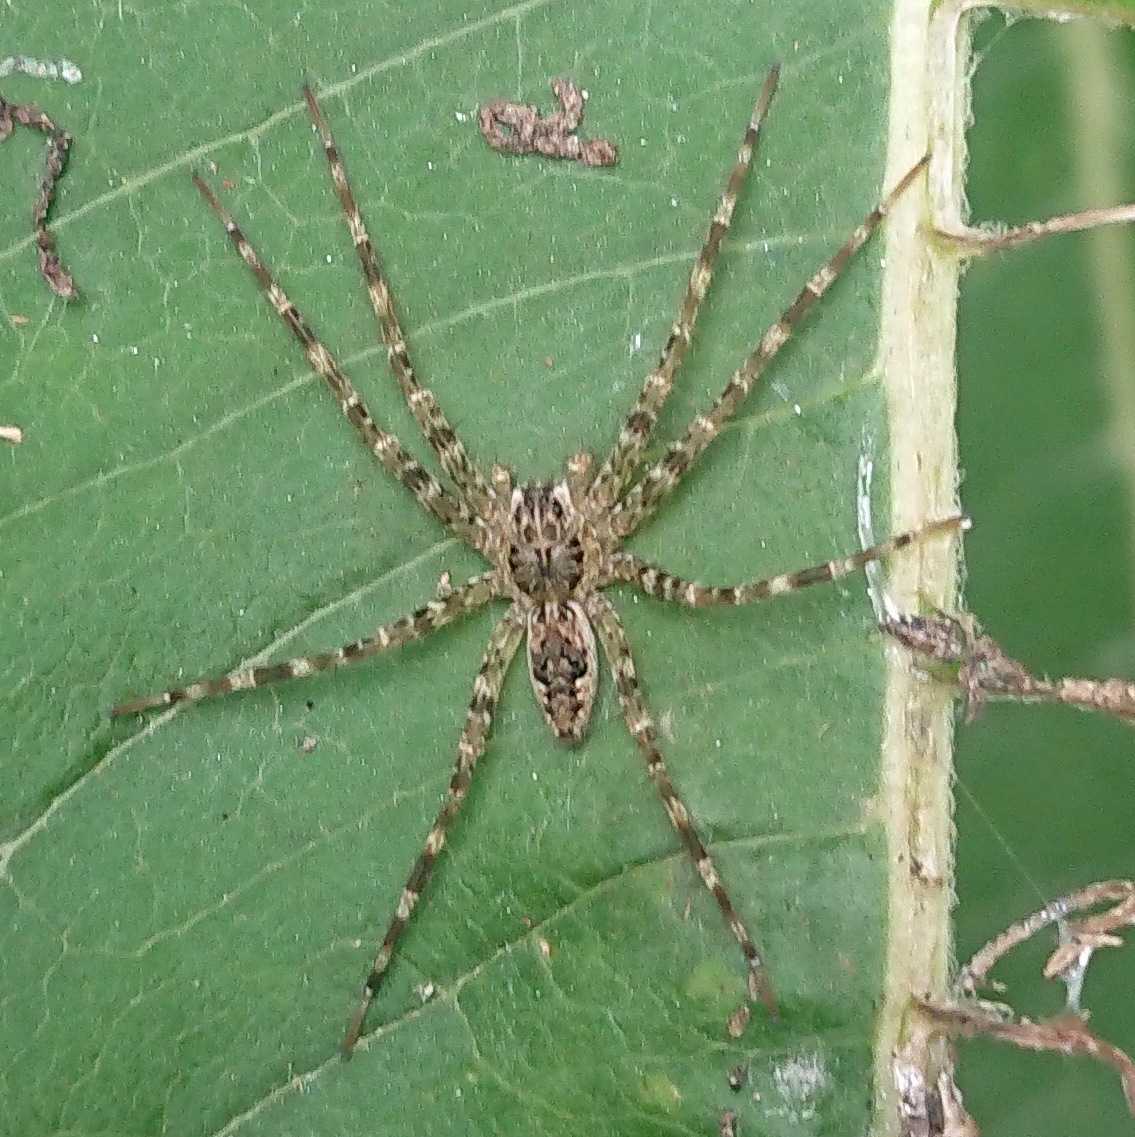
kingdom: Animalia
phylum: Arthropoda
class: Arachnida
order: Araneae
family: Pisauridae
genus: Dolomedes
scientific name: Dolomedes tenebrosus
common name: Dark fishing spider
